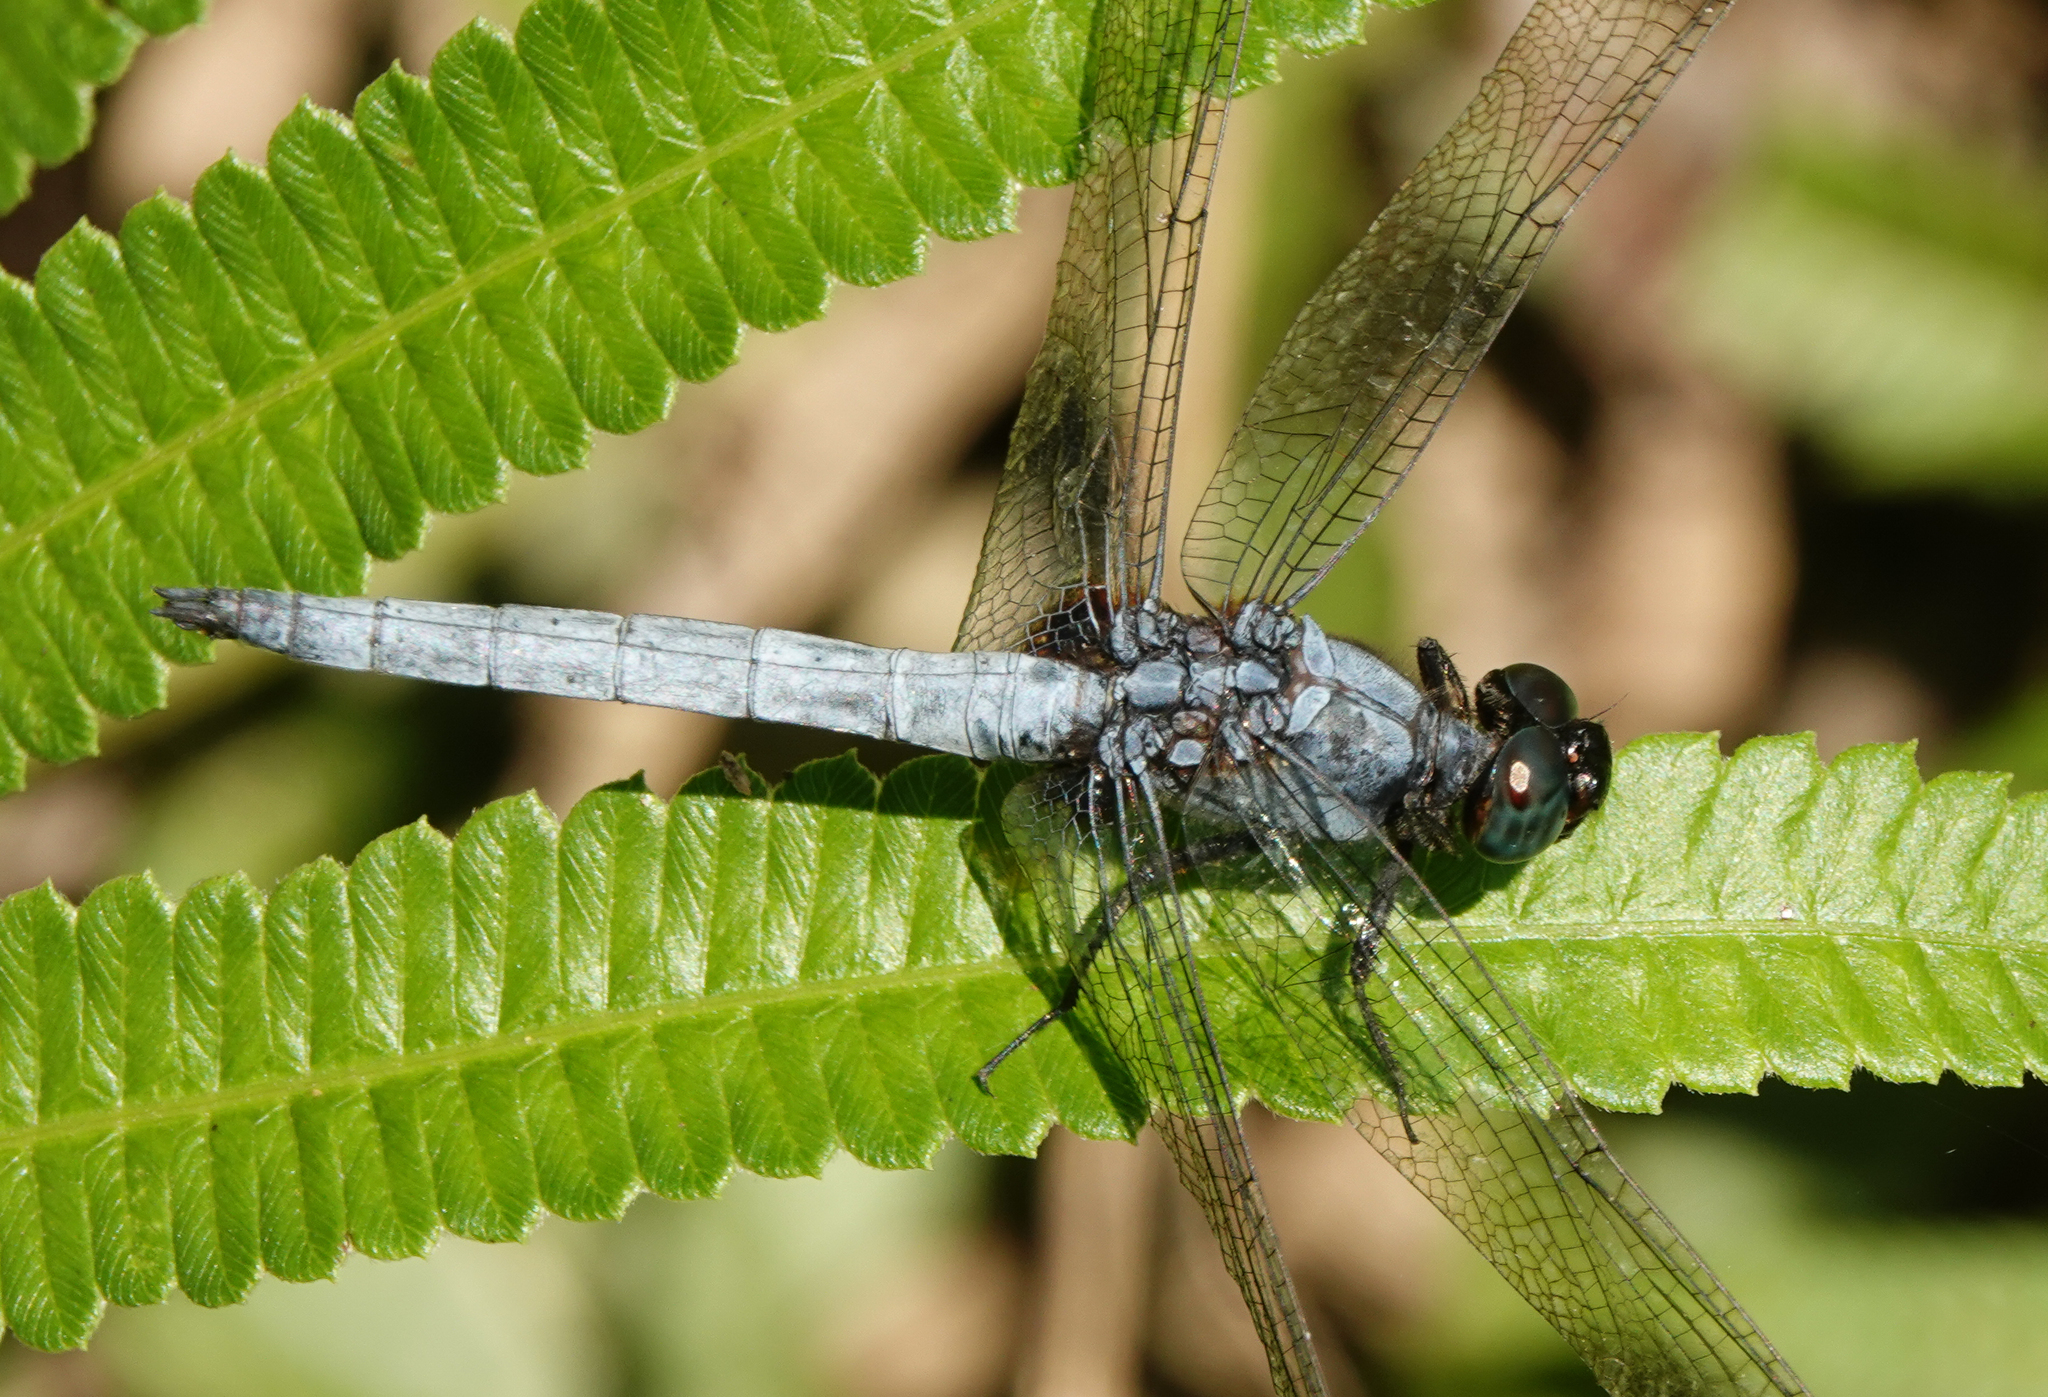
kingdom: Animalia
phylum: Arthropoda
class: Insecta
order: Odonata
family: Libellulidae
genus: Orthetrum
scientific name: Orthetrum glaucum
